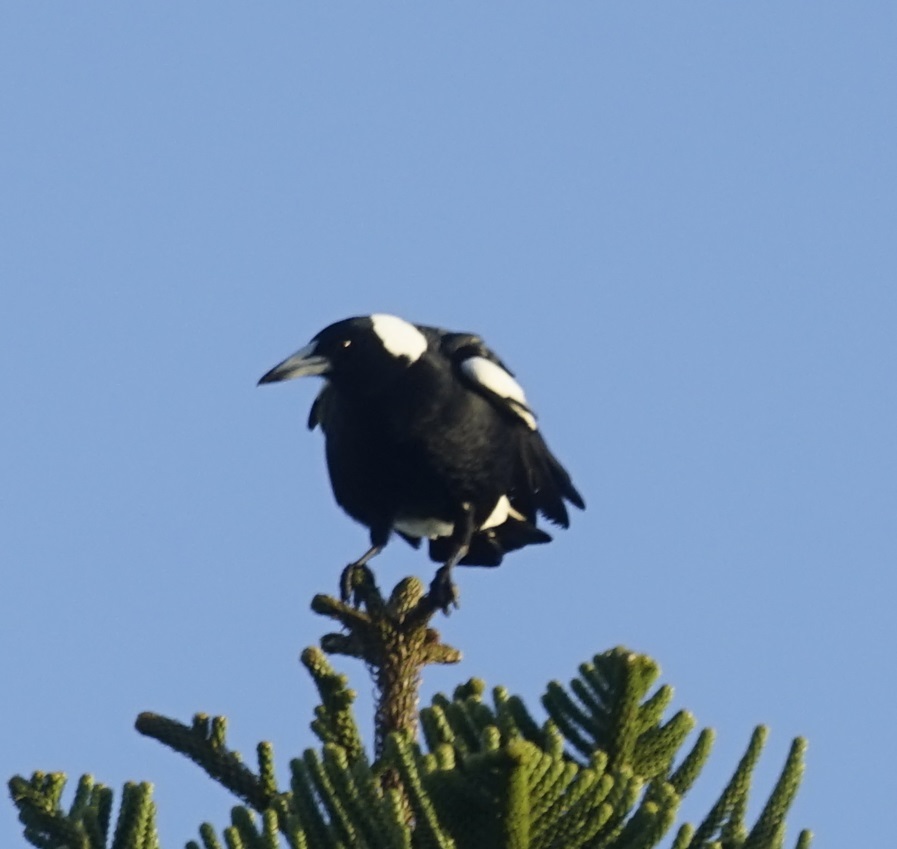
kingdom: Animalia
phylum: Chordata
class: Aves
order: Passeriformes
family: Cracticidae
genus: Gymnorhina
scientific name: Gymnorhina tibicen
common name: Australian magpie
